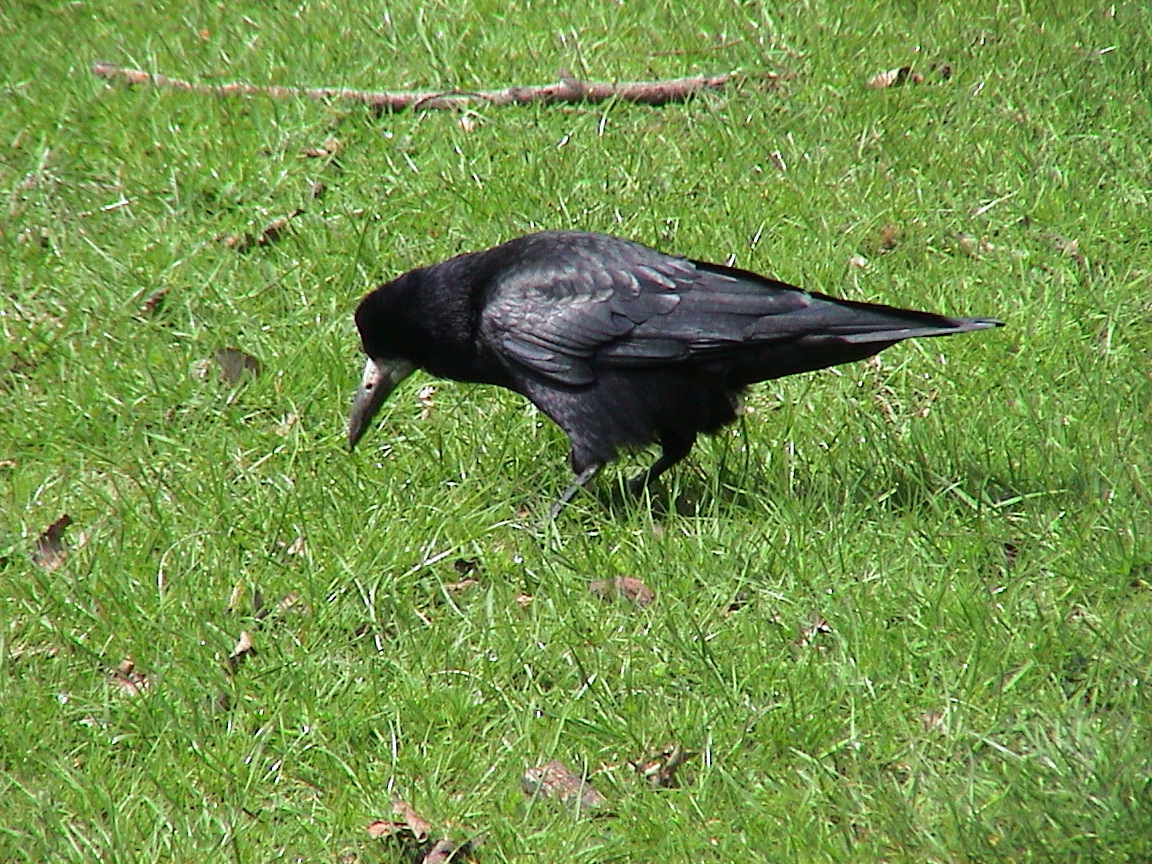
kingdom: Animalia
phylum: Chordata
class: Aves
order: Passeriformes
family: Corvidae
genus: Corvus
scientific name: Corvus frugilegus
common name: Rook
